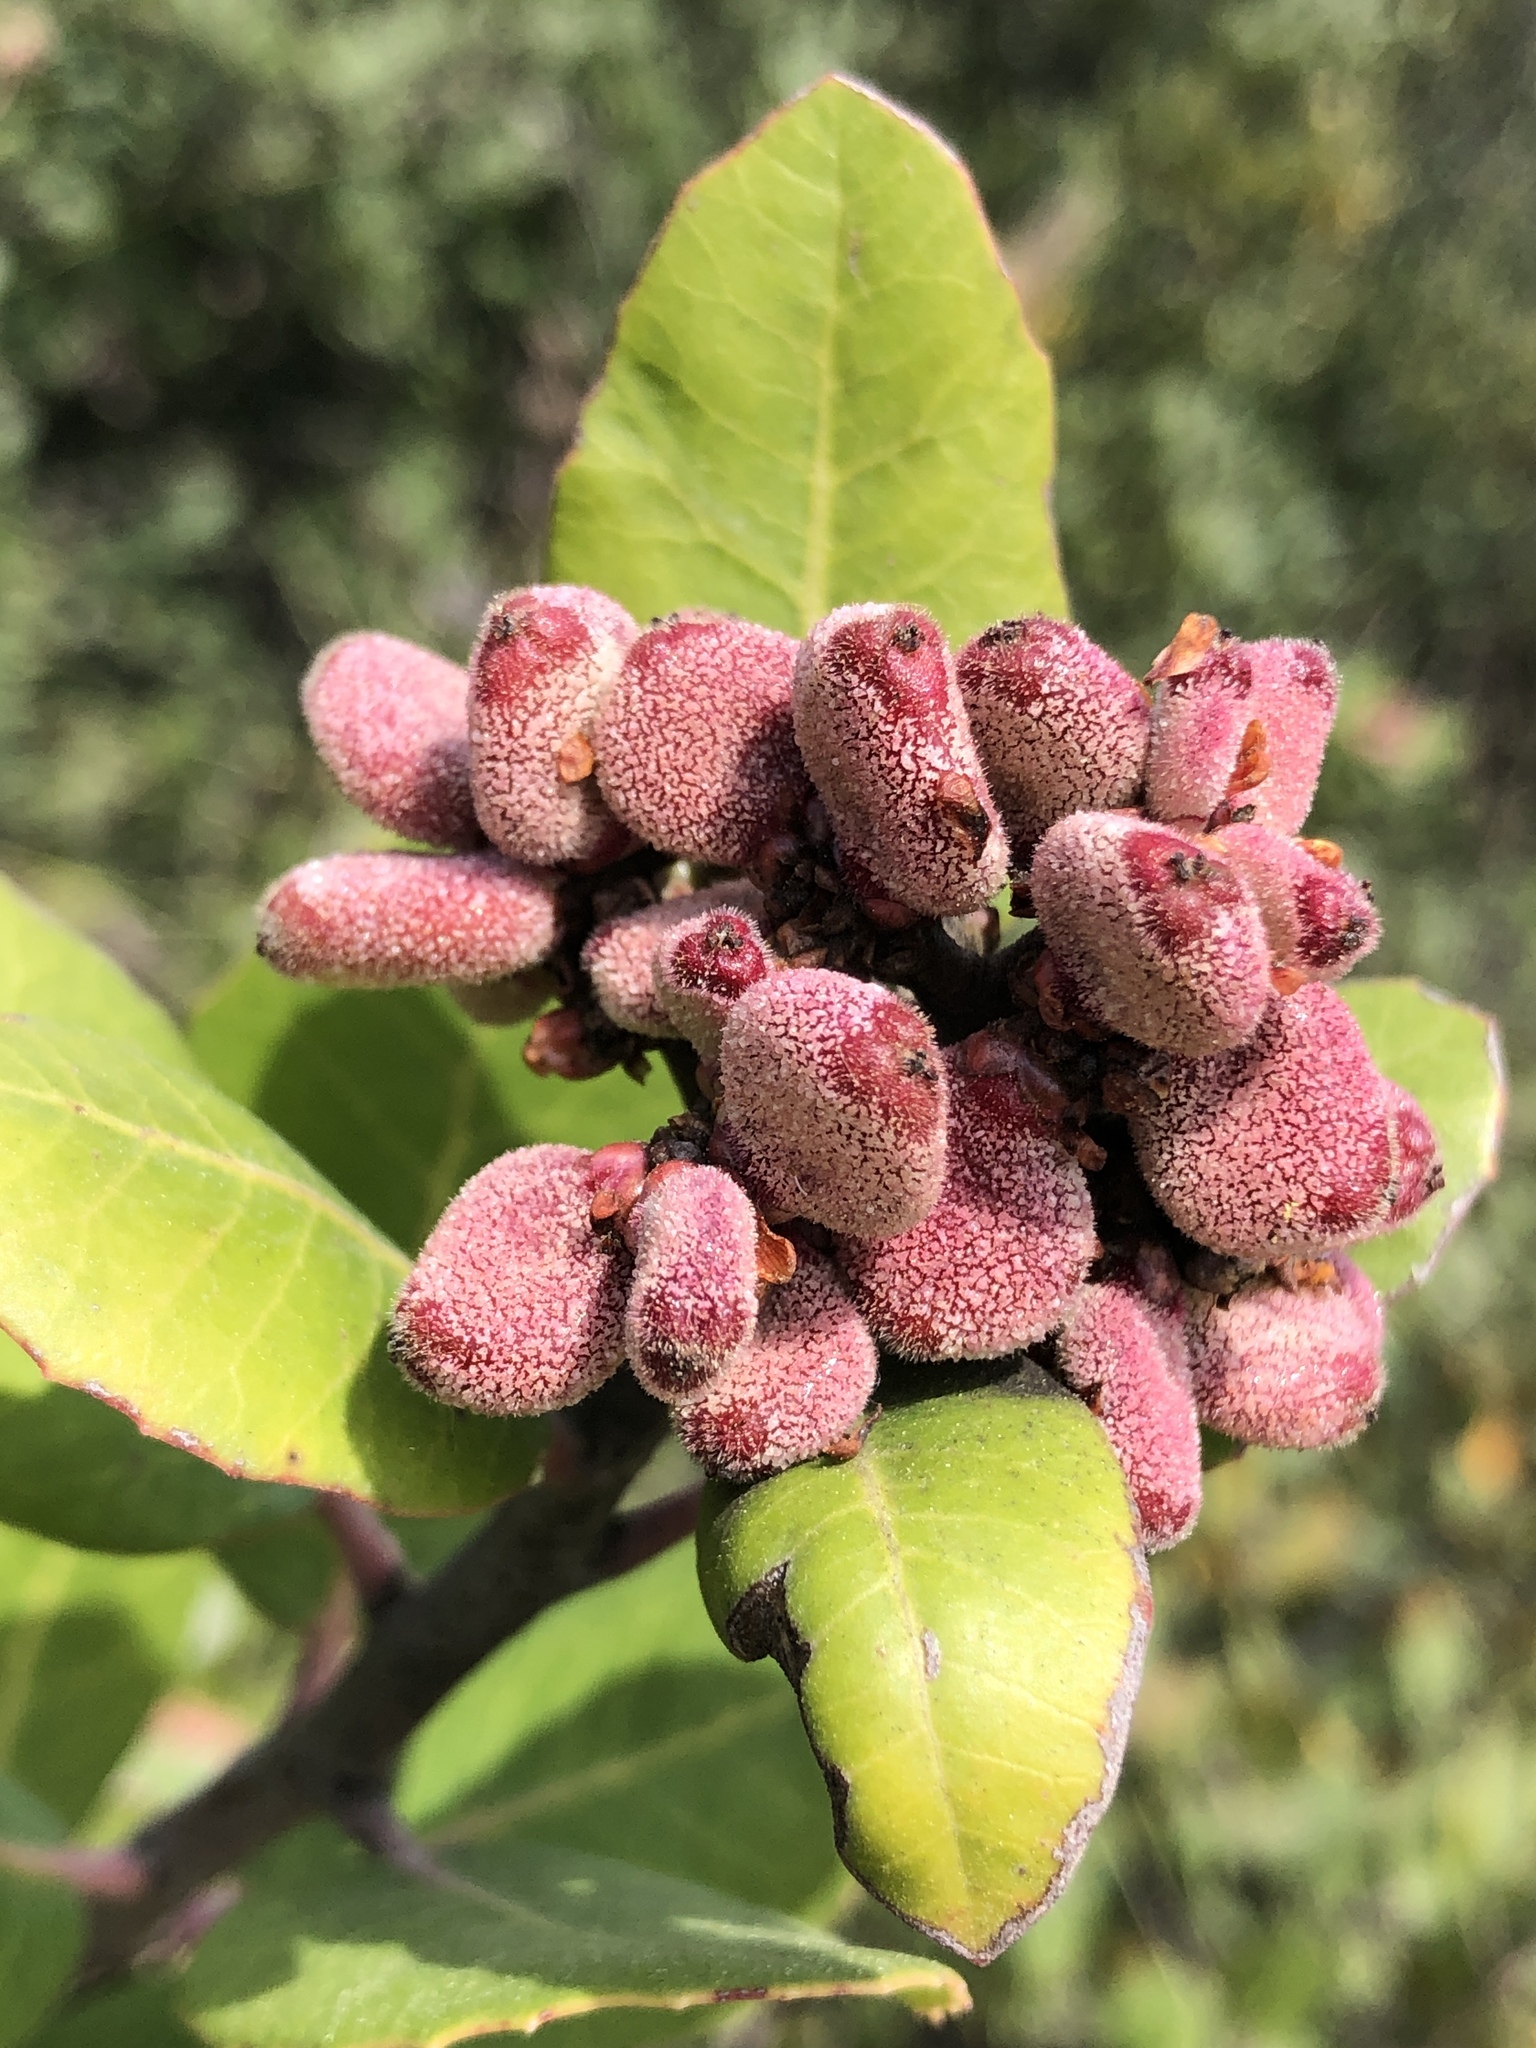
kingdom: Plantae
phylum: Tracheophyta
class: Magnoliopsida
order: Sapindales
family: Anacardiaceae
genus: Rhus
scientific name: Rhus integrifolia
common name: Lemonade sumac
